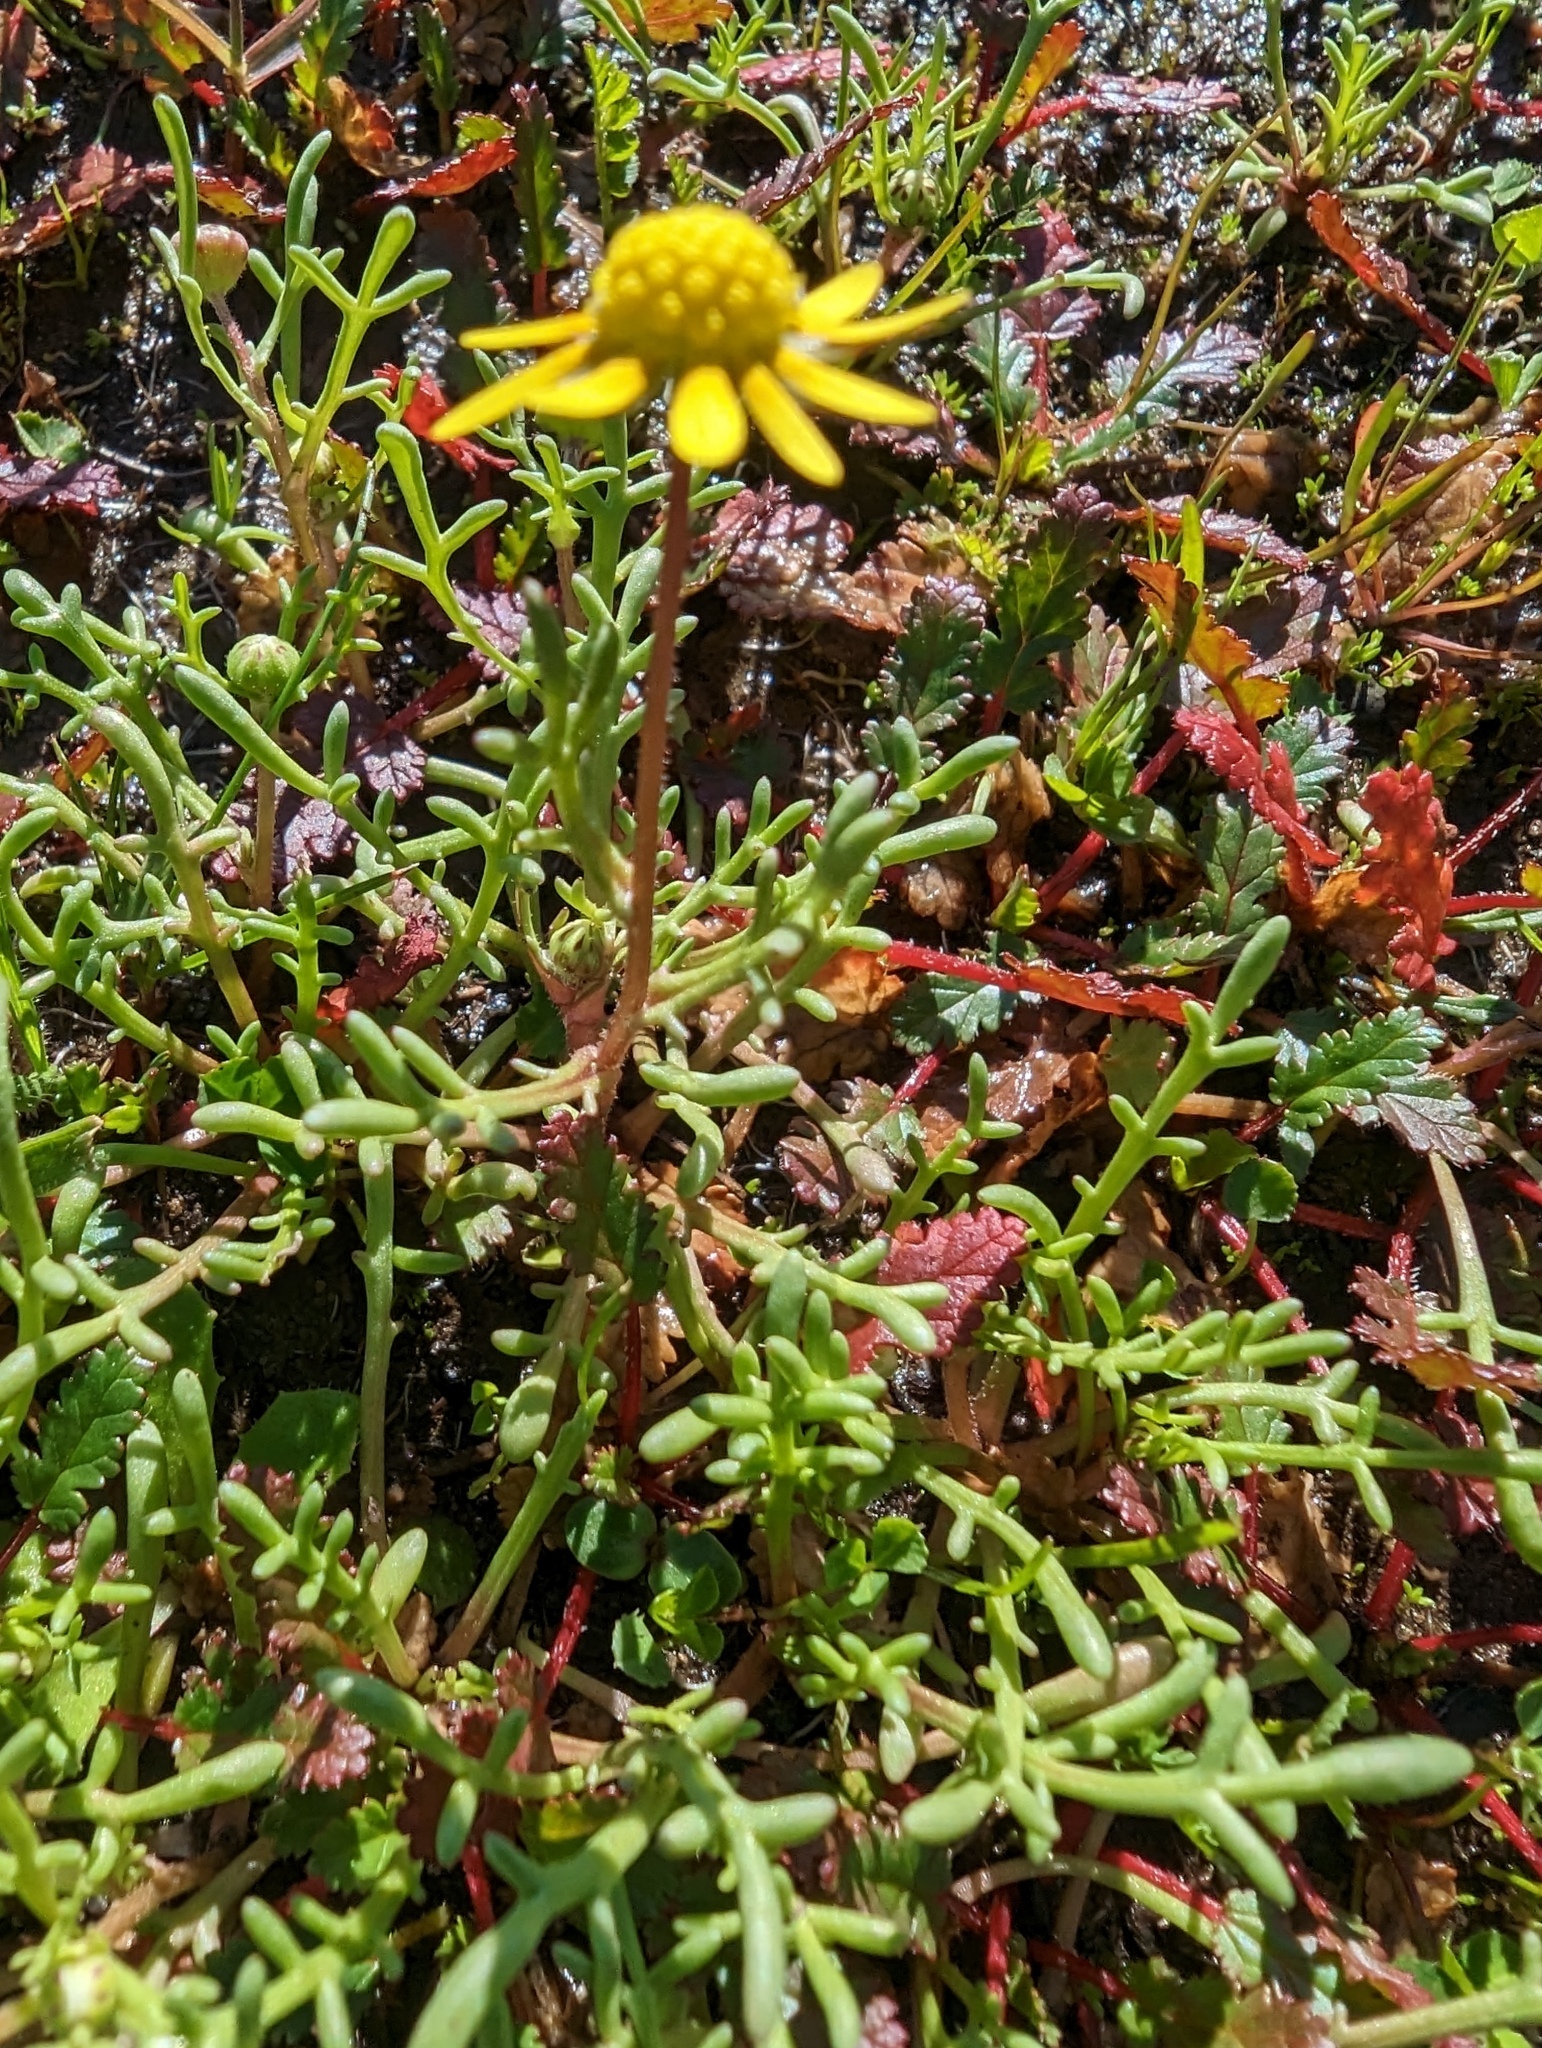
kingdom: Plantae
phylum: Tracheophyta
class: Magnoliopsida
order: Asterales
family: Asteraceae
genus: Blennosperma
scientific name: Blennosperma nanum
